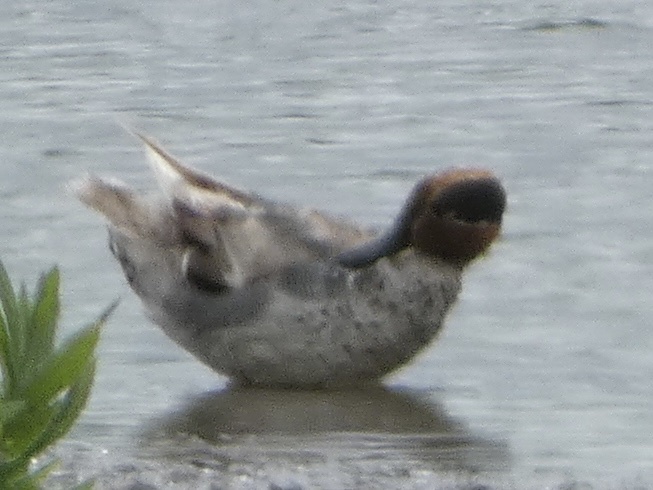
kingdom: Animalia
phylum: Chordata
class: Aves
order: Anseriformes
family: Anatidae
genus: Anas
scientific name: Anas crecca
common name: Eurasian teal
